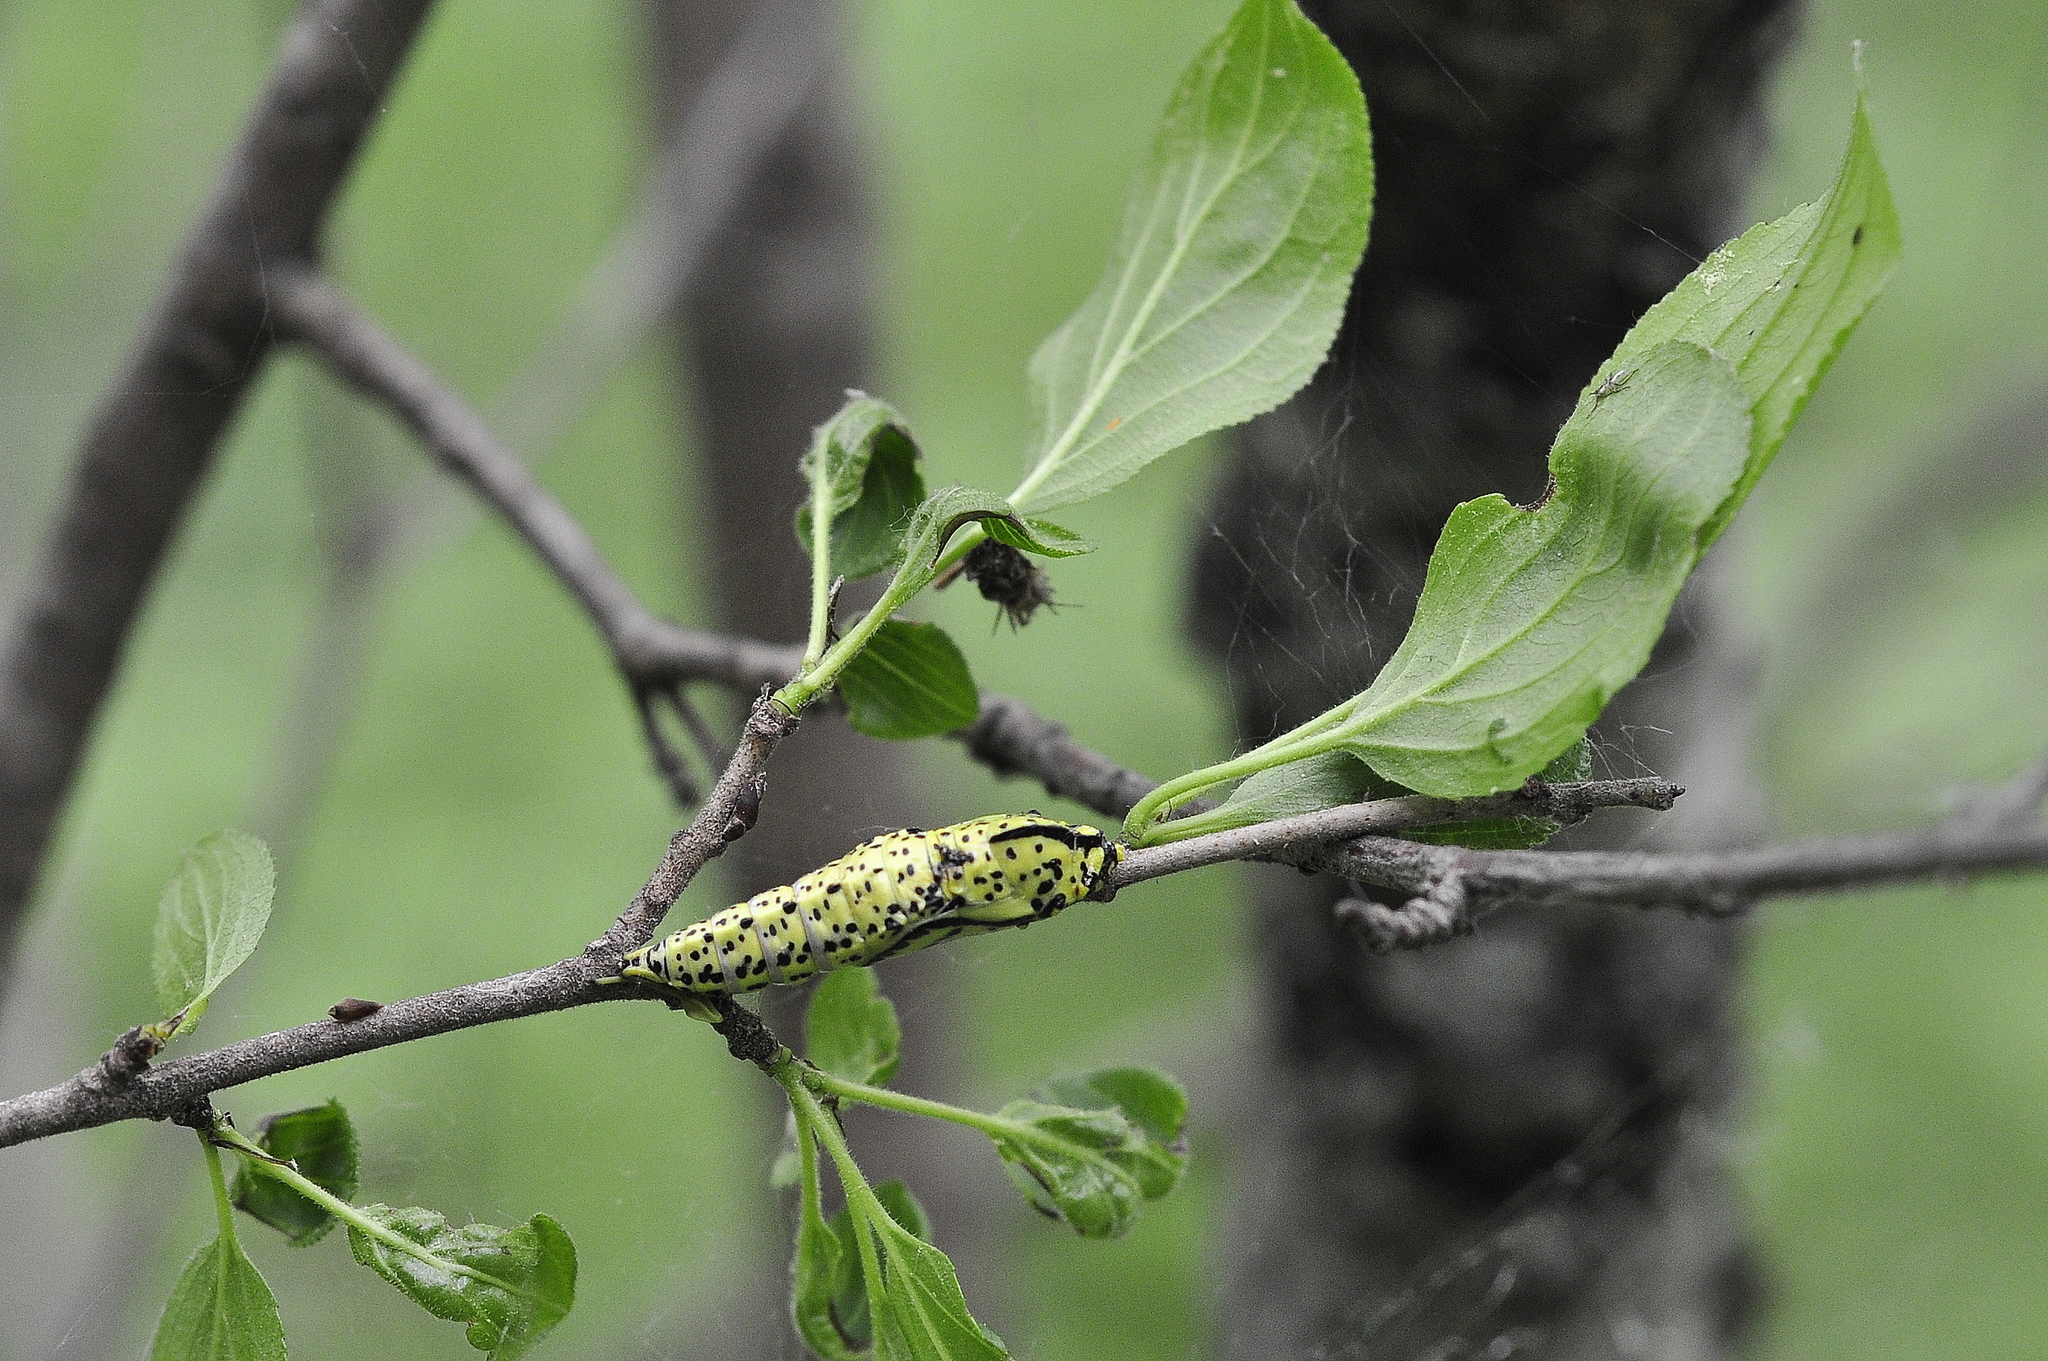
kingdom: Animalia
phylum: Arthropoda
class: Insecta
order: Lepidoptera
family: Pieridae
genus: Aporia
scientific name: Aporia crataegi
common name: Black-veined white
